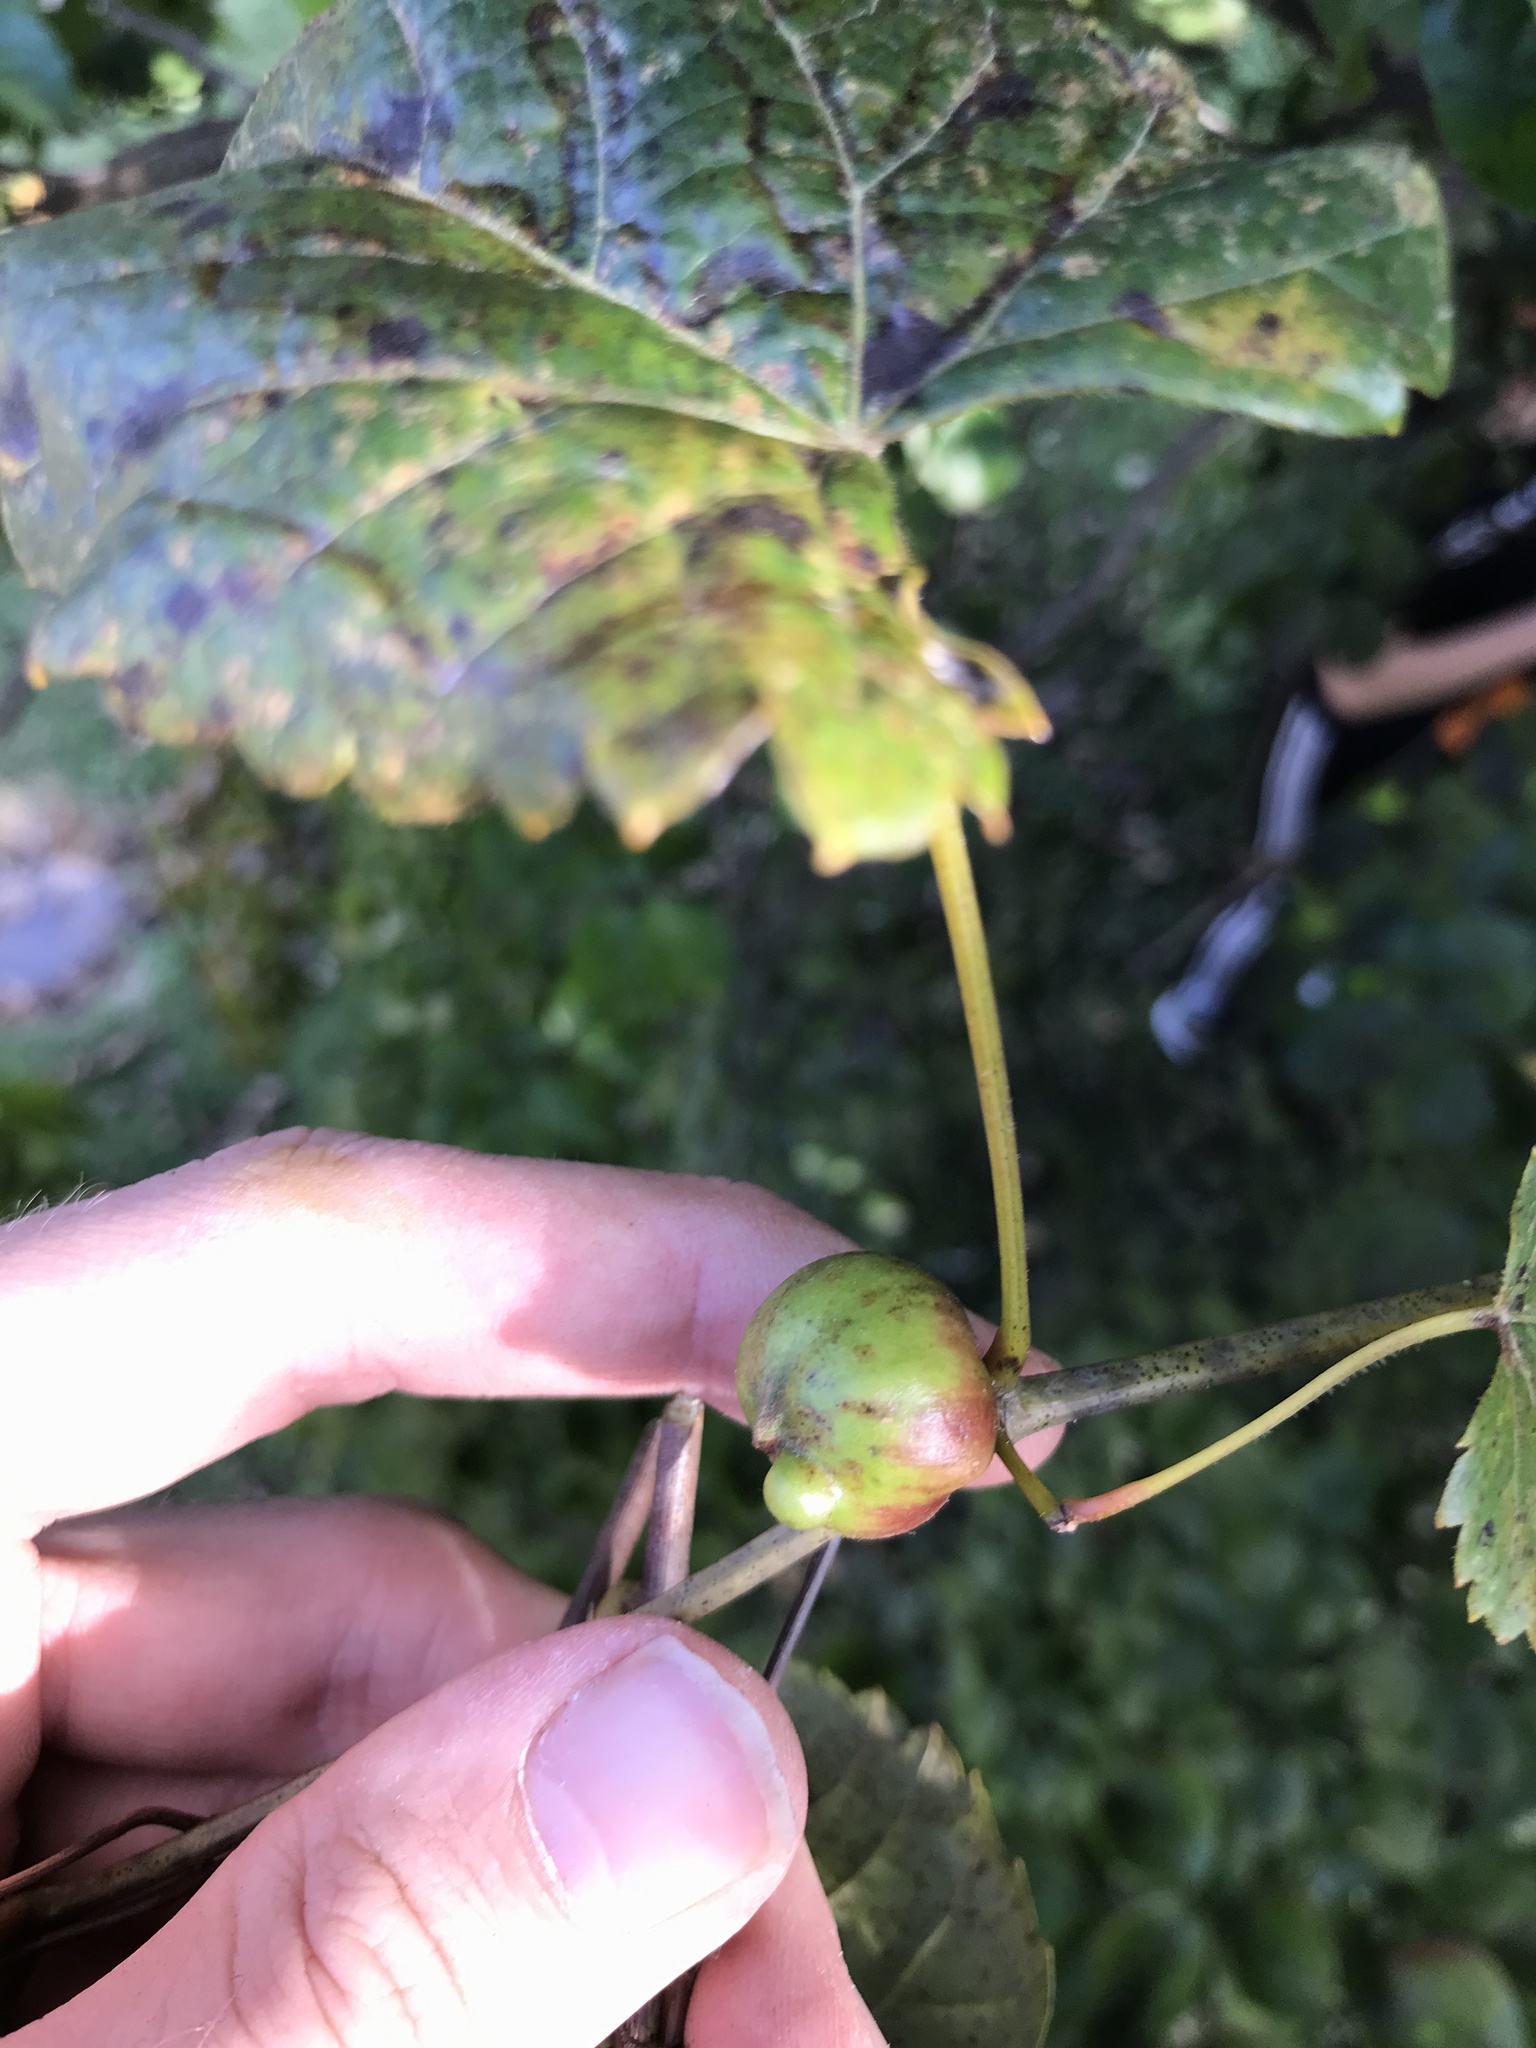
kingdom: Animalia
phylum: Arthropoda
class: Insecta
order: Diptera
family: Cecidomyiidae
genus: Ampelomyia
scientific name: Ampelomyia vitispomum
